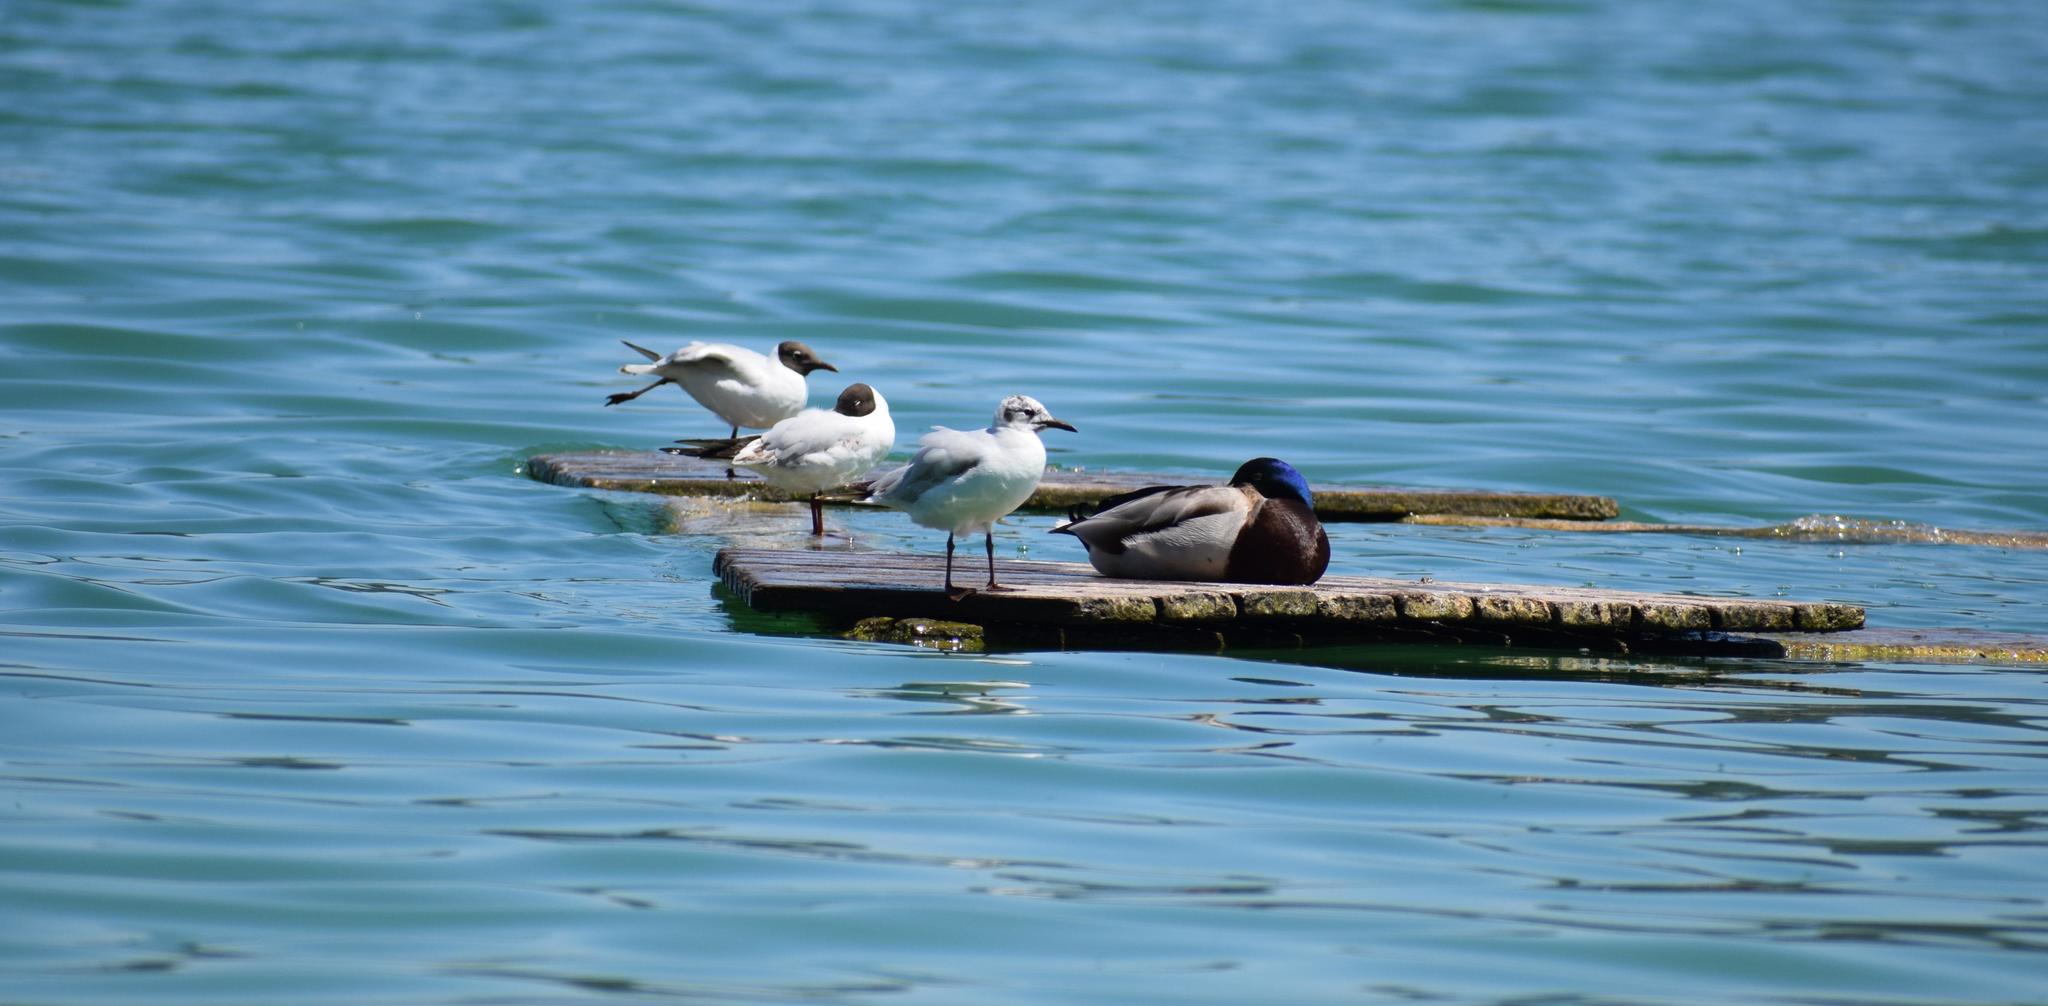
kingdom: Animalia
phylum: Chordata
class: Aves
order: Anseriformes
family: Anatidae
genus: Anas
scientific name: Anas platyrhynchos
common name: Mallard
